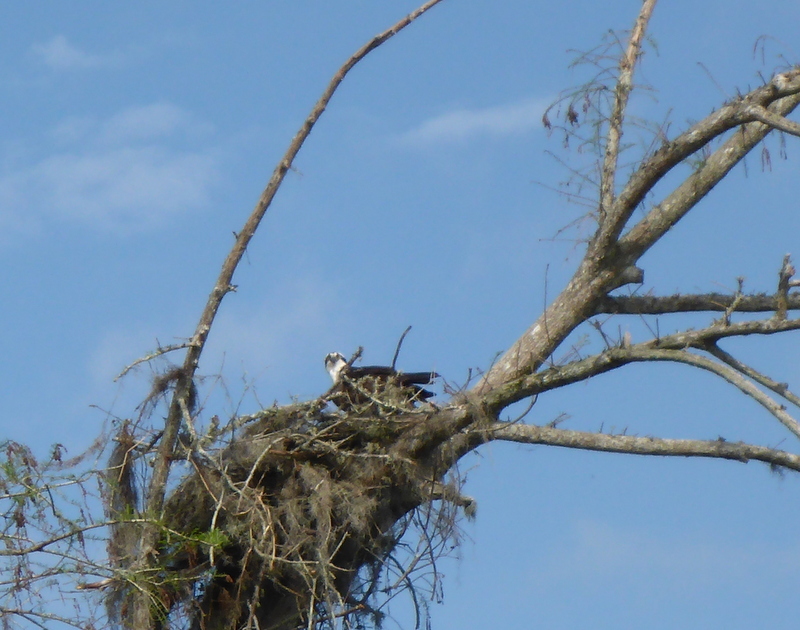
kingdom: Animalia
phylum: Chordata
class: Aves
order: Accipitriformes
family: Pandionidae
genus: Pandion
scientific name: Pandion haliaetus
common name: Osprey
